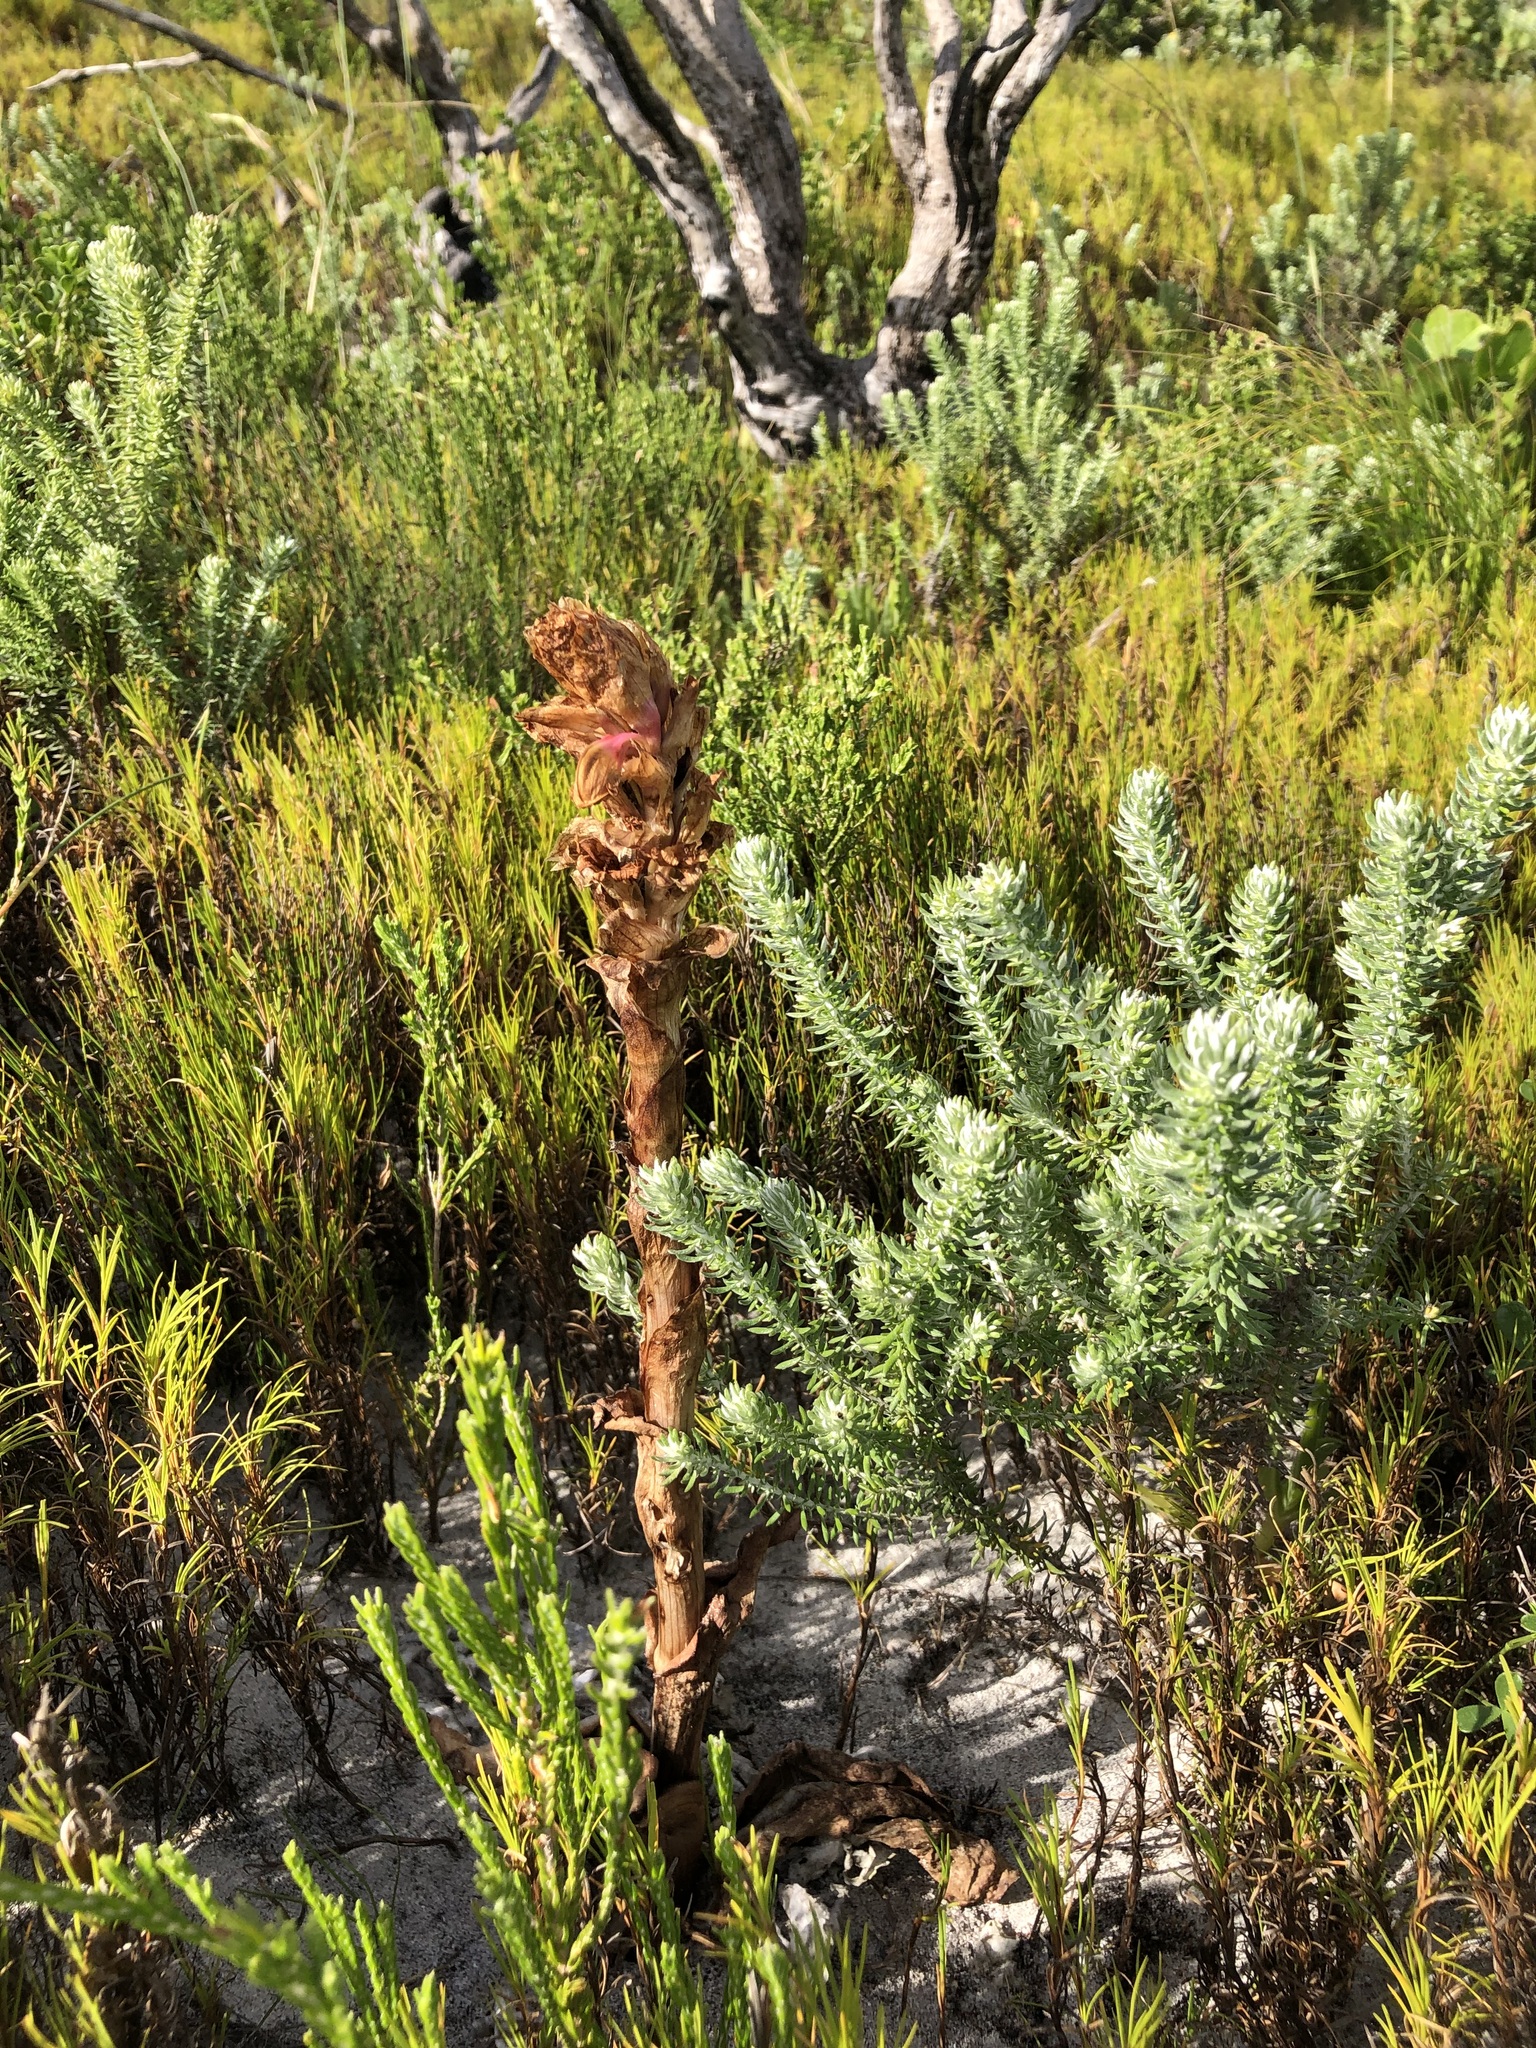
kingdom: Plantae
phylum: Tracheophyta
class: Liliopsida
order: Asparagales
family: Orchidaceae
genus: Satyrium
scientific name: Satyrium carneum
